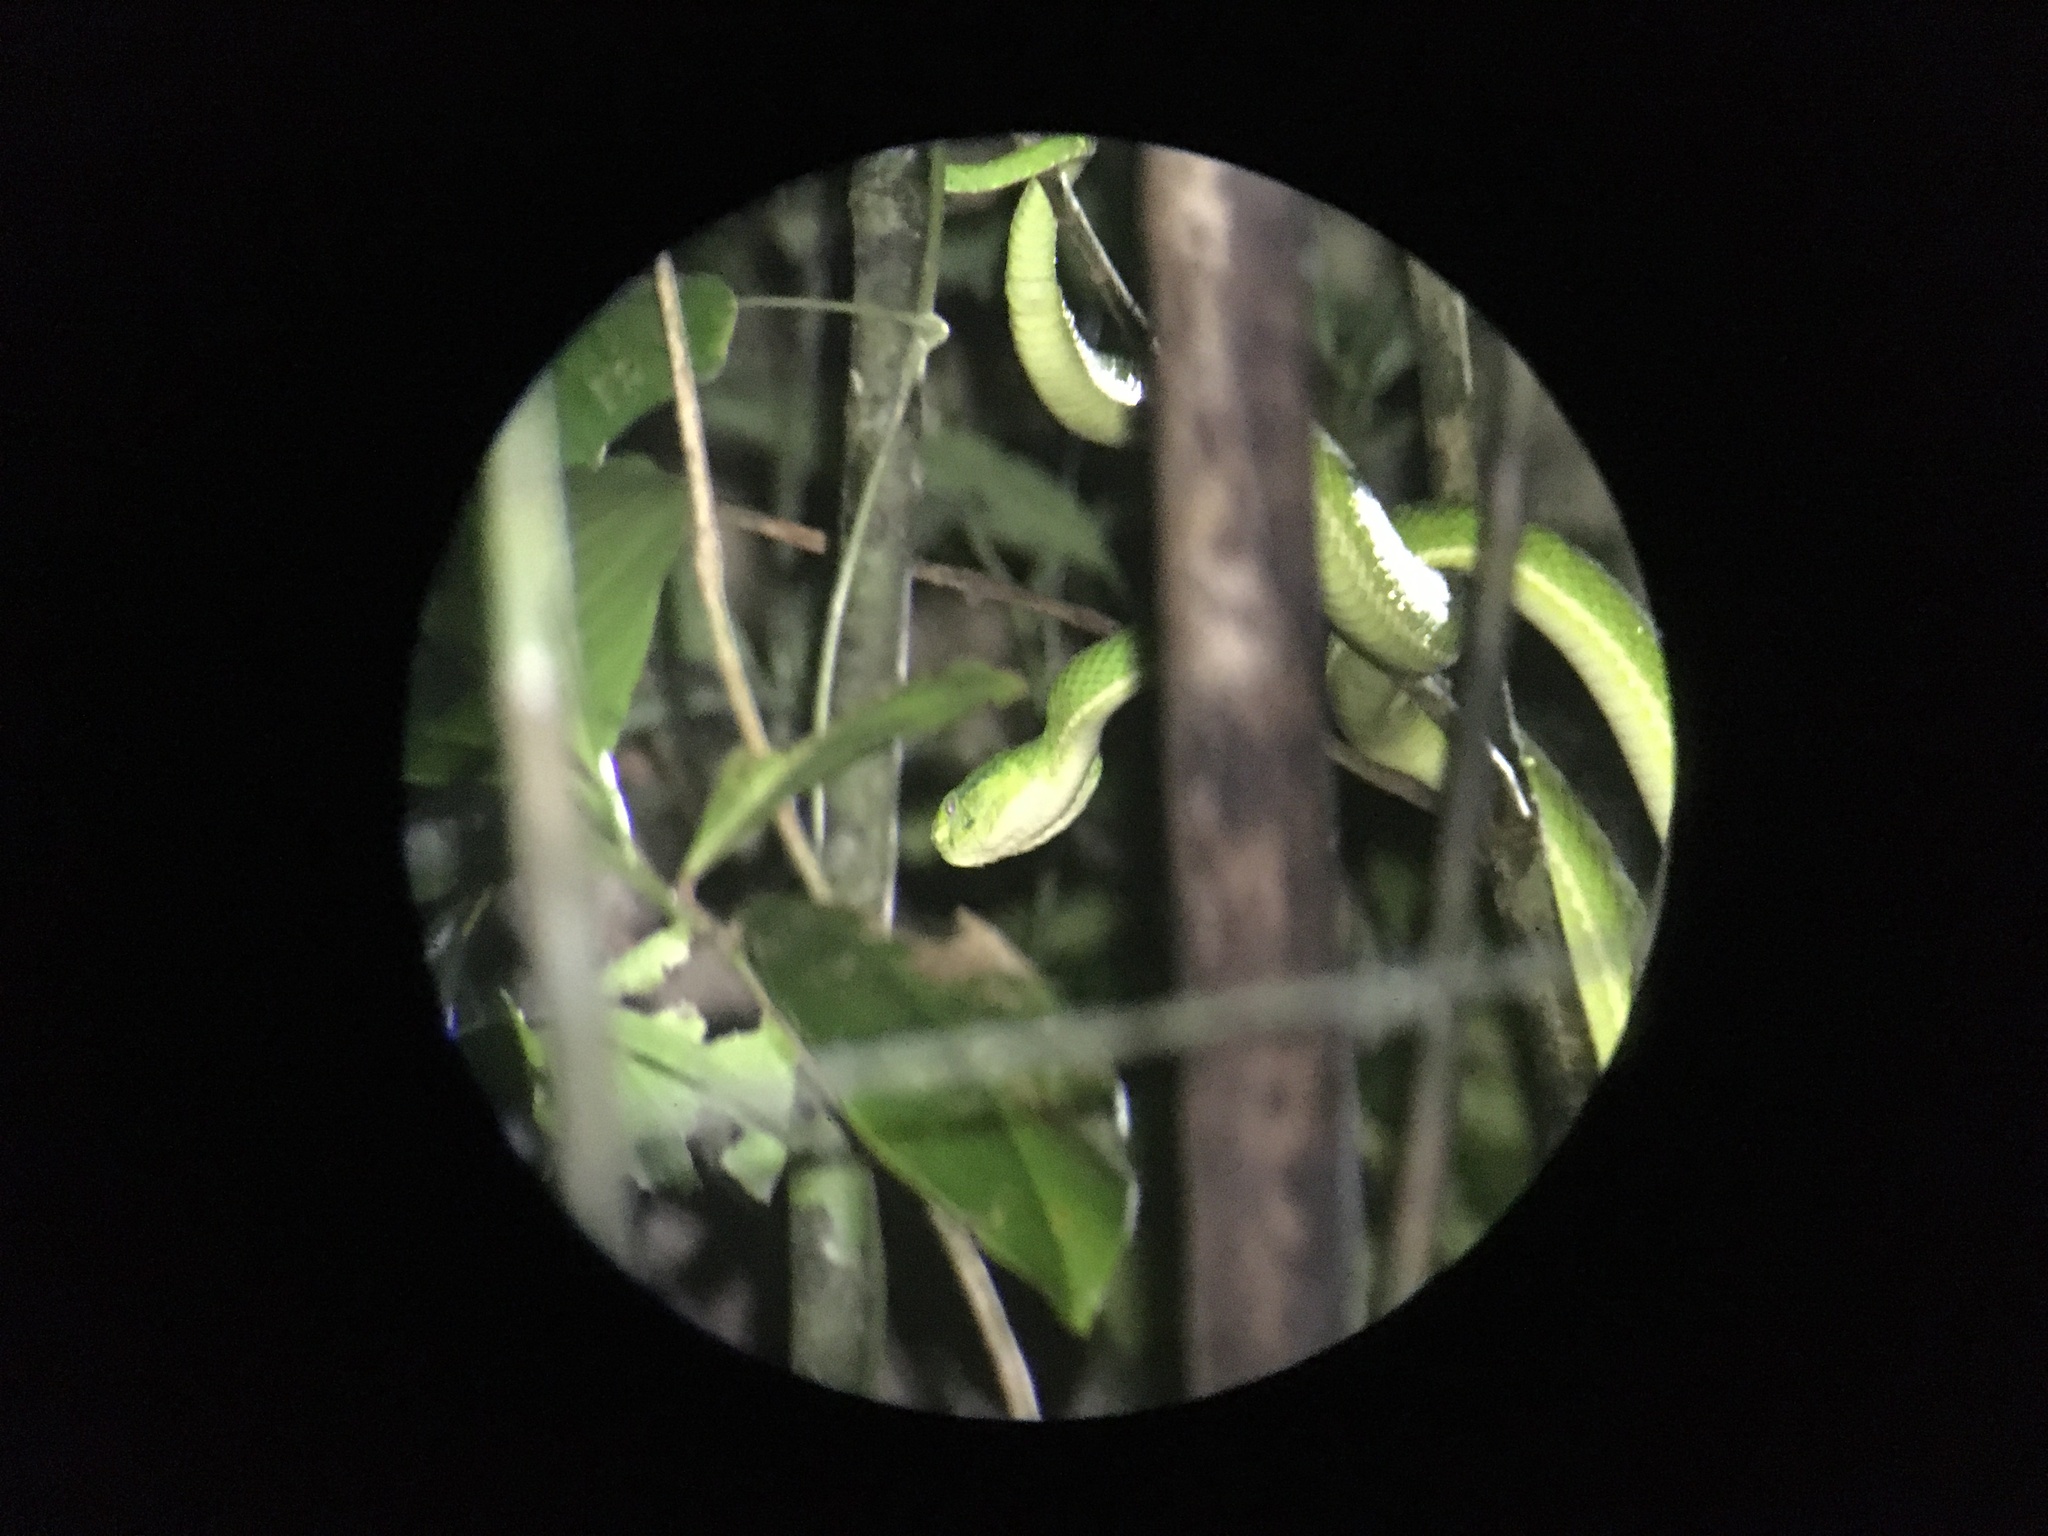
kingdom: Animalia
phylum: Chordata
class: Squamata
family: Viperidae
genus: Bothriechis
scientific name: Bothriechis lateralis
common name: Coffee palm viper
